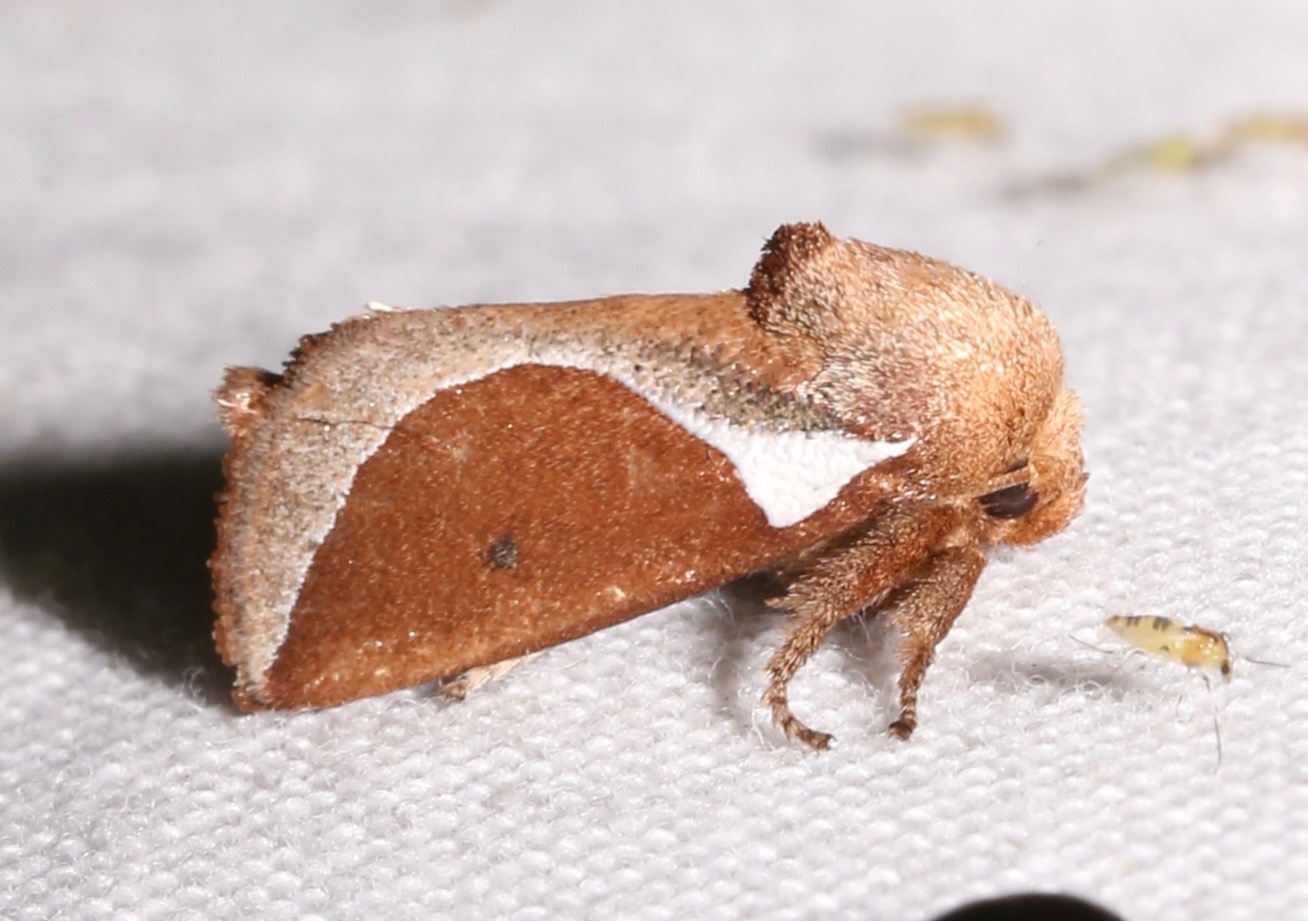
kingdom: Animalia
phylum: Arthropoda
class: Insecta
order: Lepidoptera
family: Limacodidae
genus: Prolimacodes
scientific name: Prolimacodes badia
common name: Skiff moth
